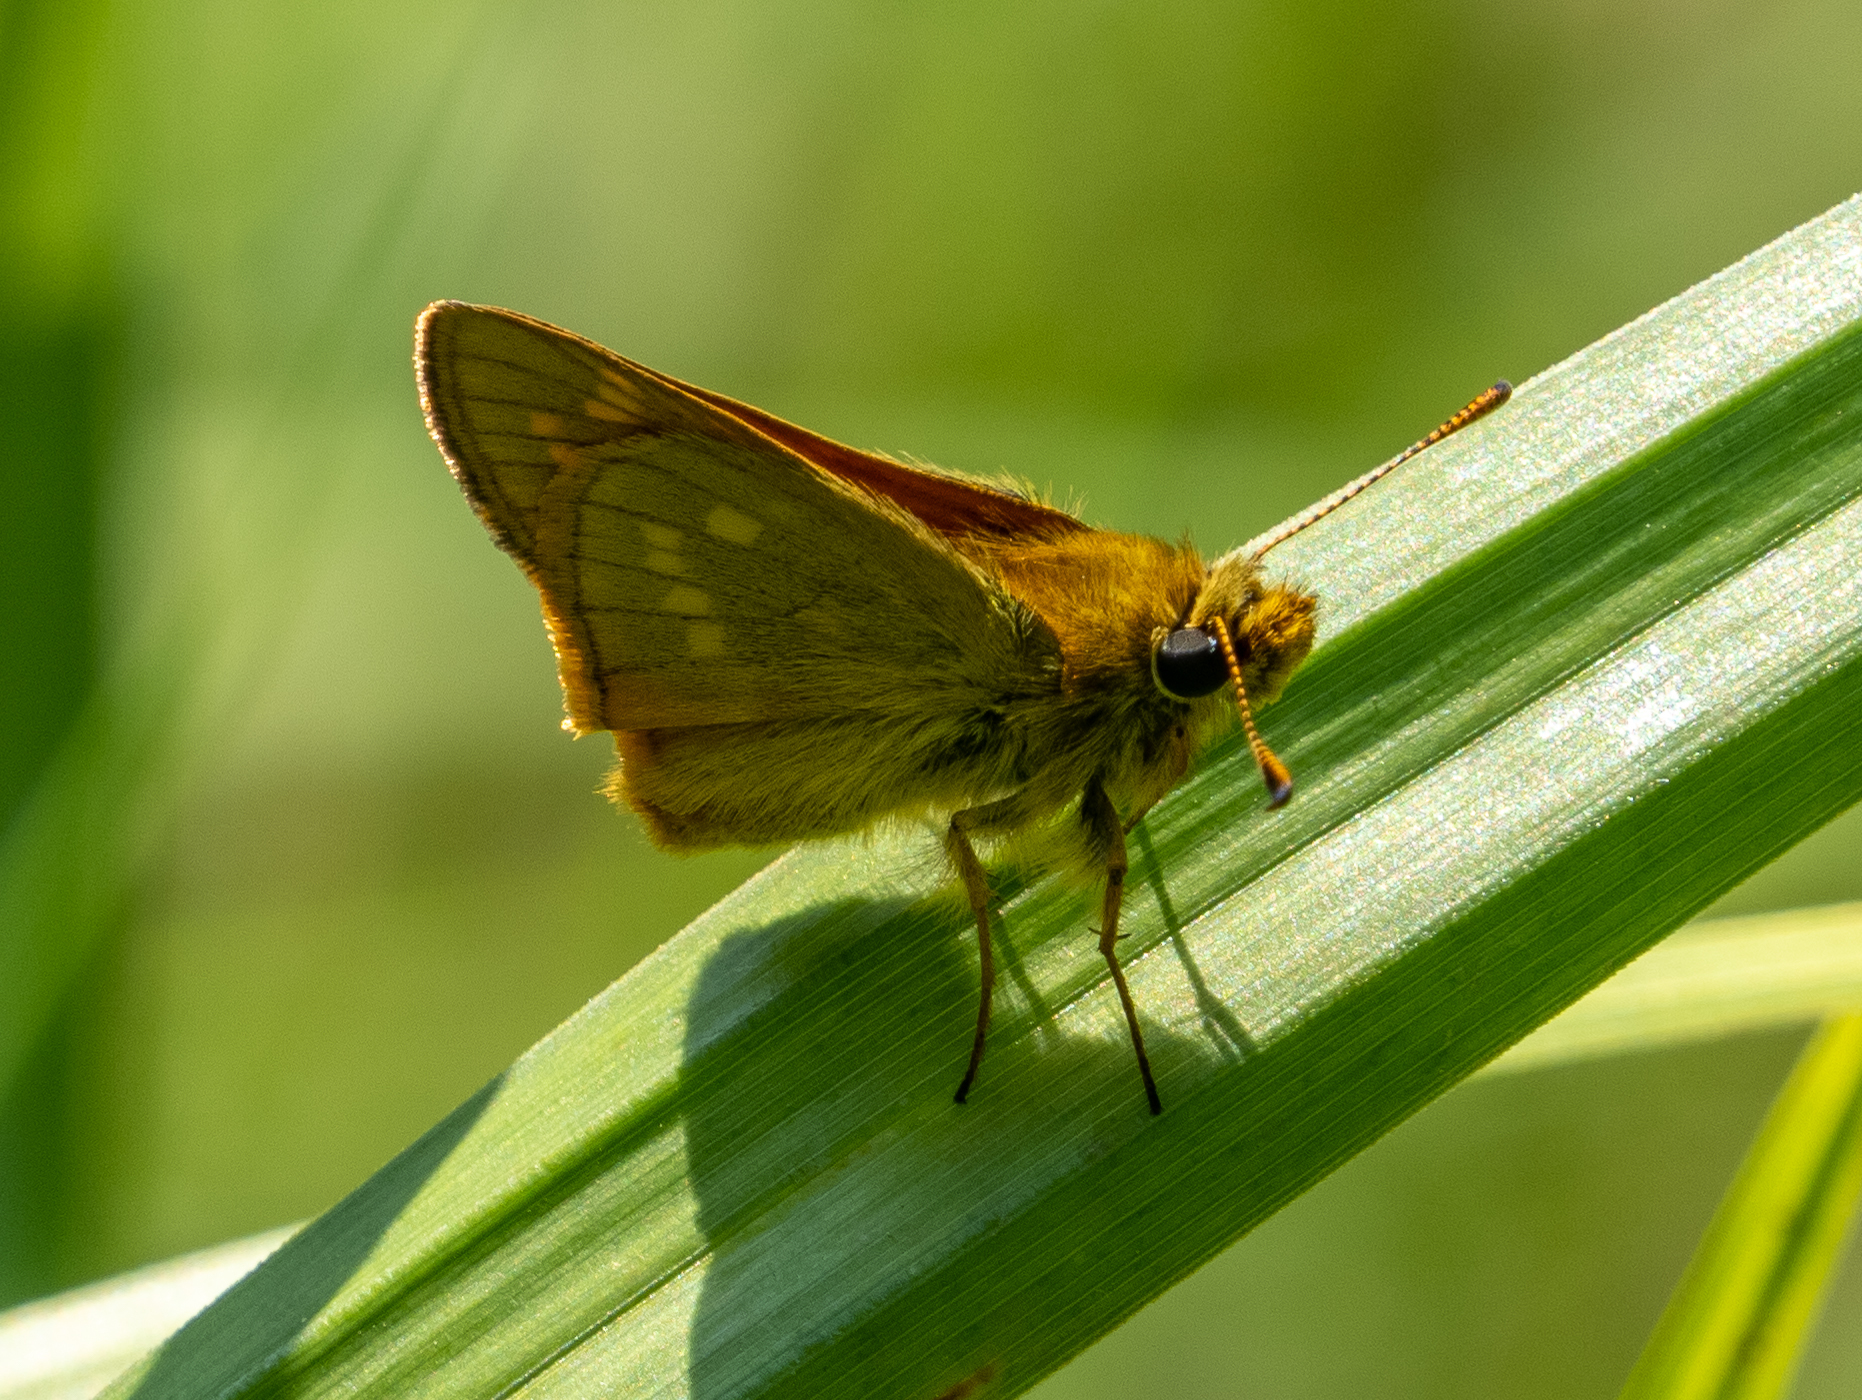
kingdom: Animalia
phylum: Arthropoda
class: Insecta
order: Lepidoptera
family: Hesperiidae
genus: Ochlodes
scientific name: Ochlodes venata
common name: Large skipper
